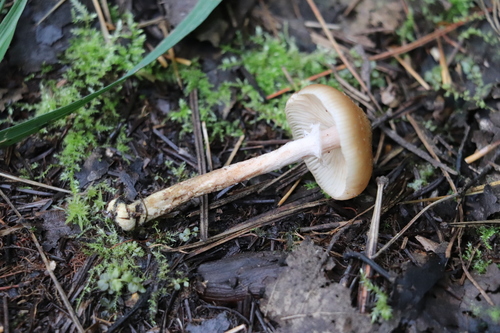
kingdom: Fungi
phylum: Basidiomycota
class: Agaricomycetes
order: Agaricales
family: Physalacriaceae
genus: Armillaria
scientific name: Armillaria cepistipes
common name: Mullet honey fungus
